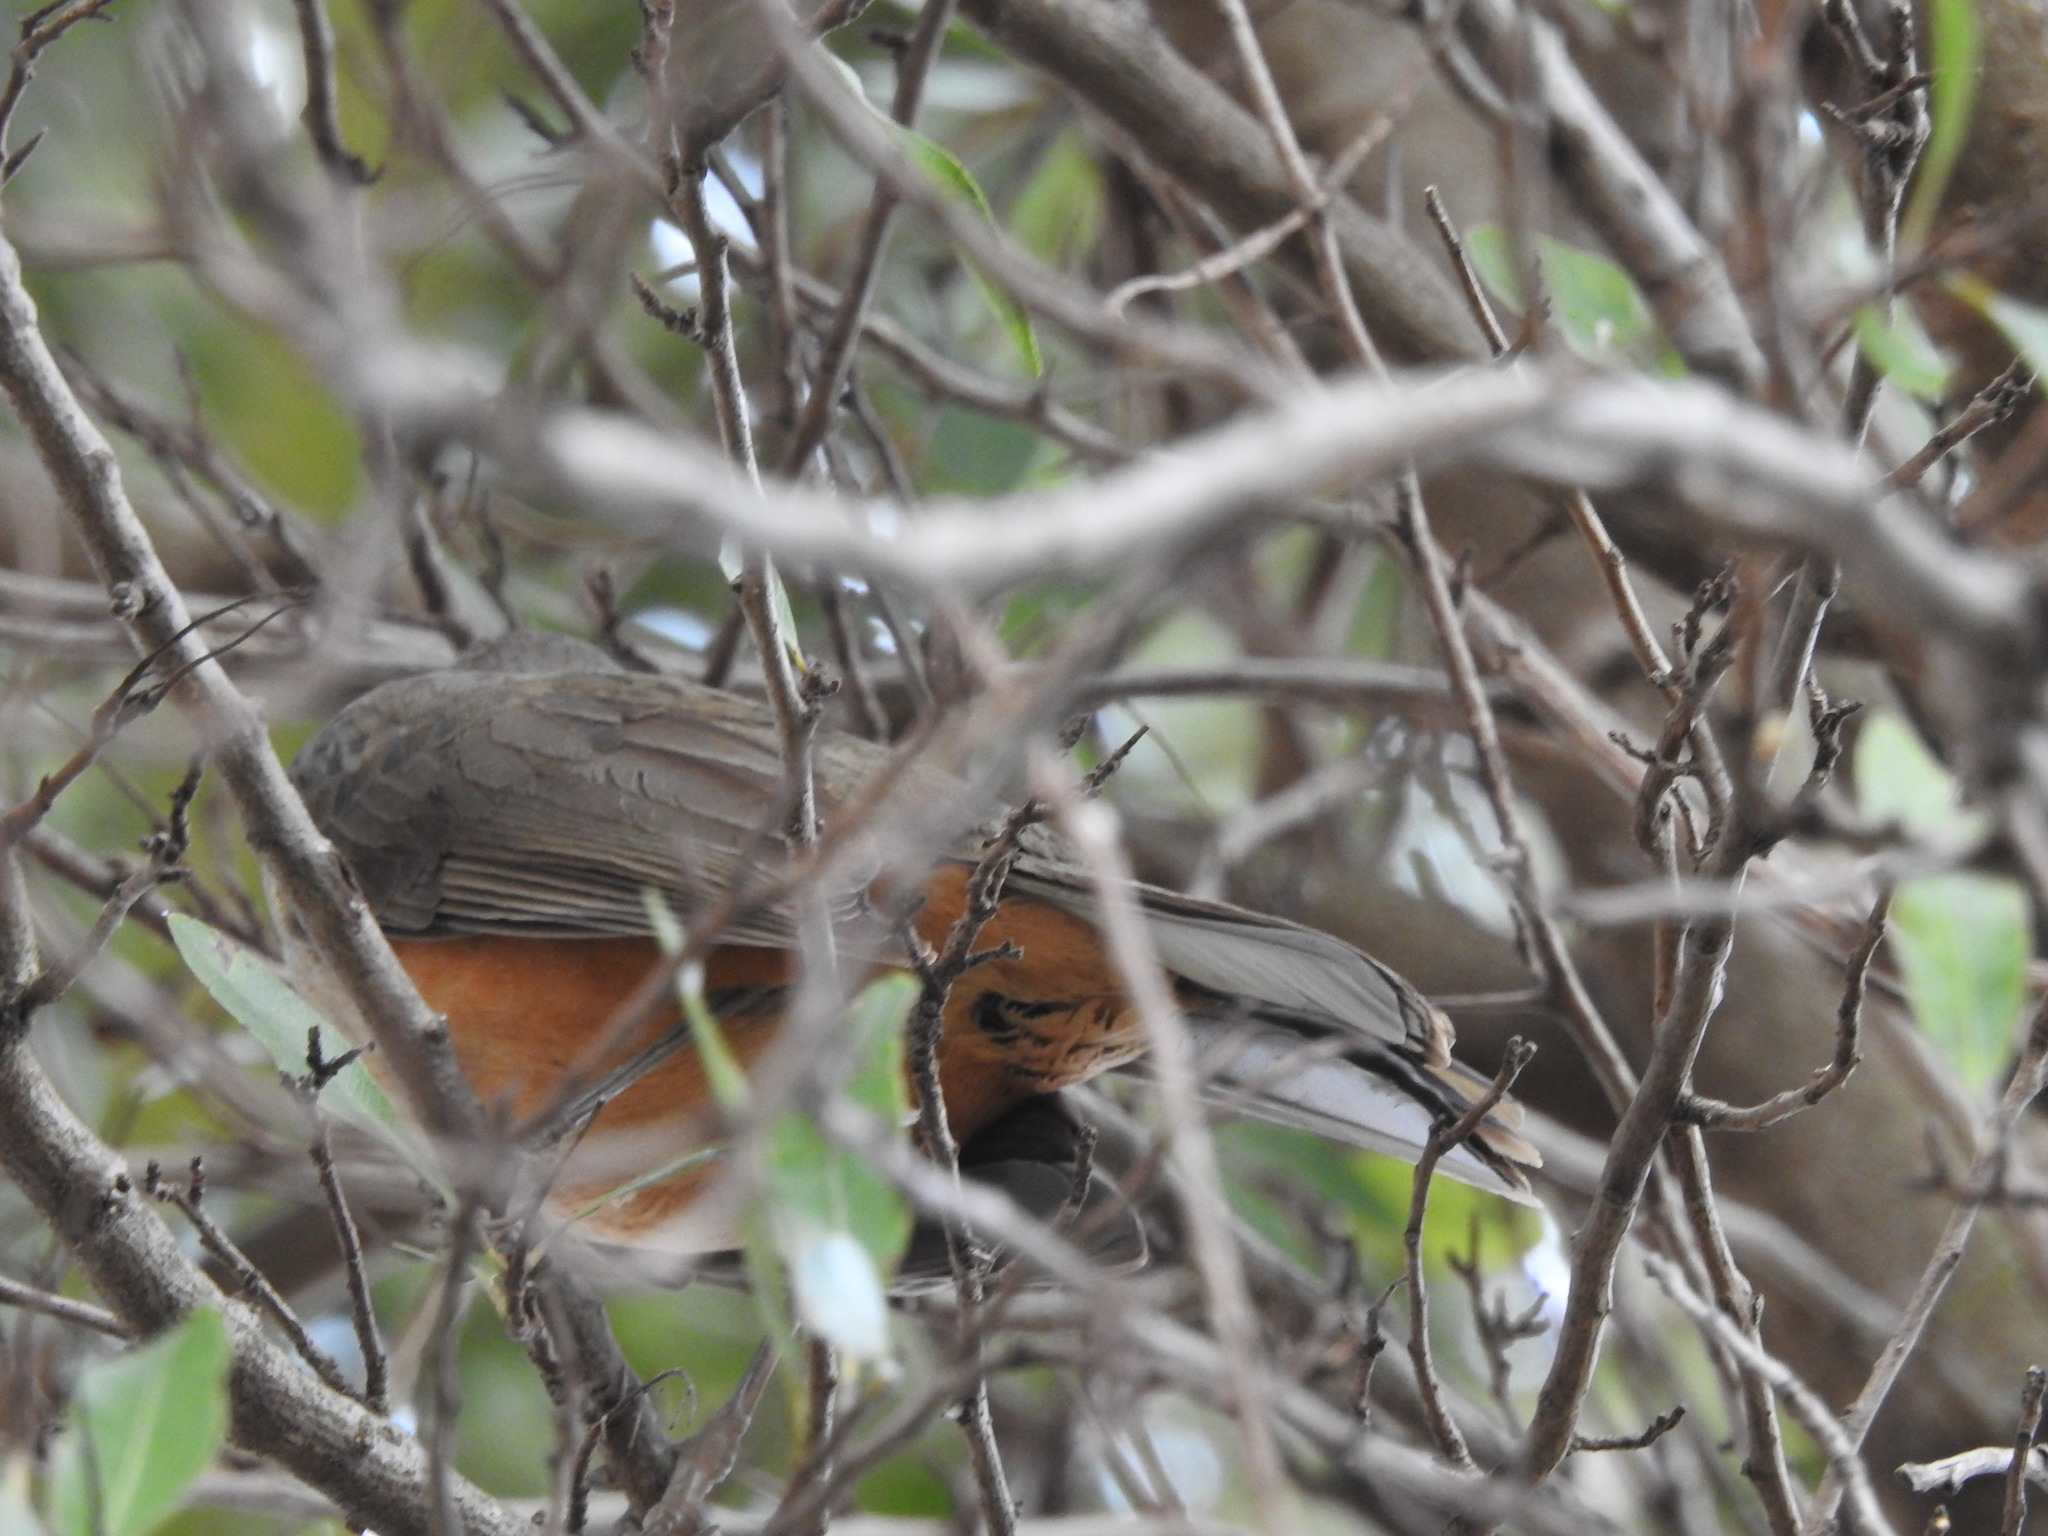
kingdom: Animalia
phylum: Chordata
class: Aves
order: Passeriformes
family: Turdidae
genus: Turdus
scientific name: Turdus rufiventris
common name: Rufous-bellied thrush
